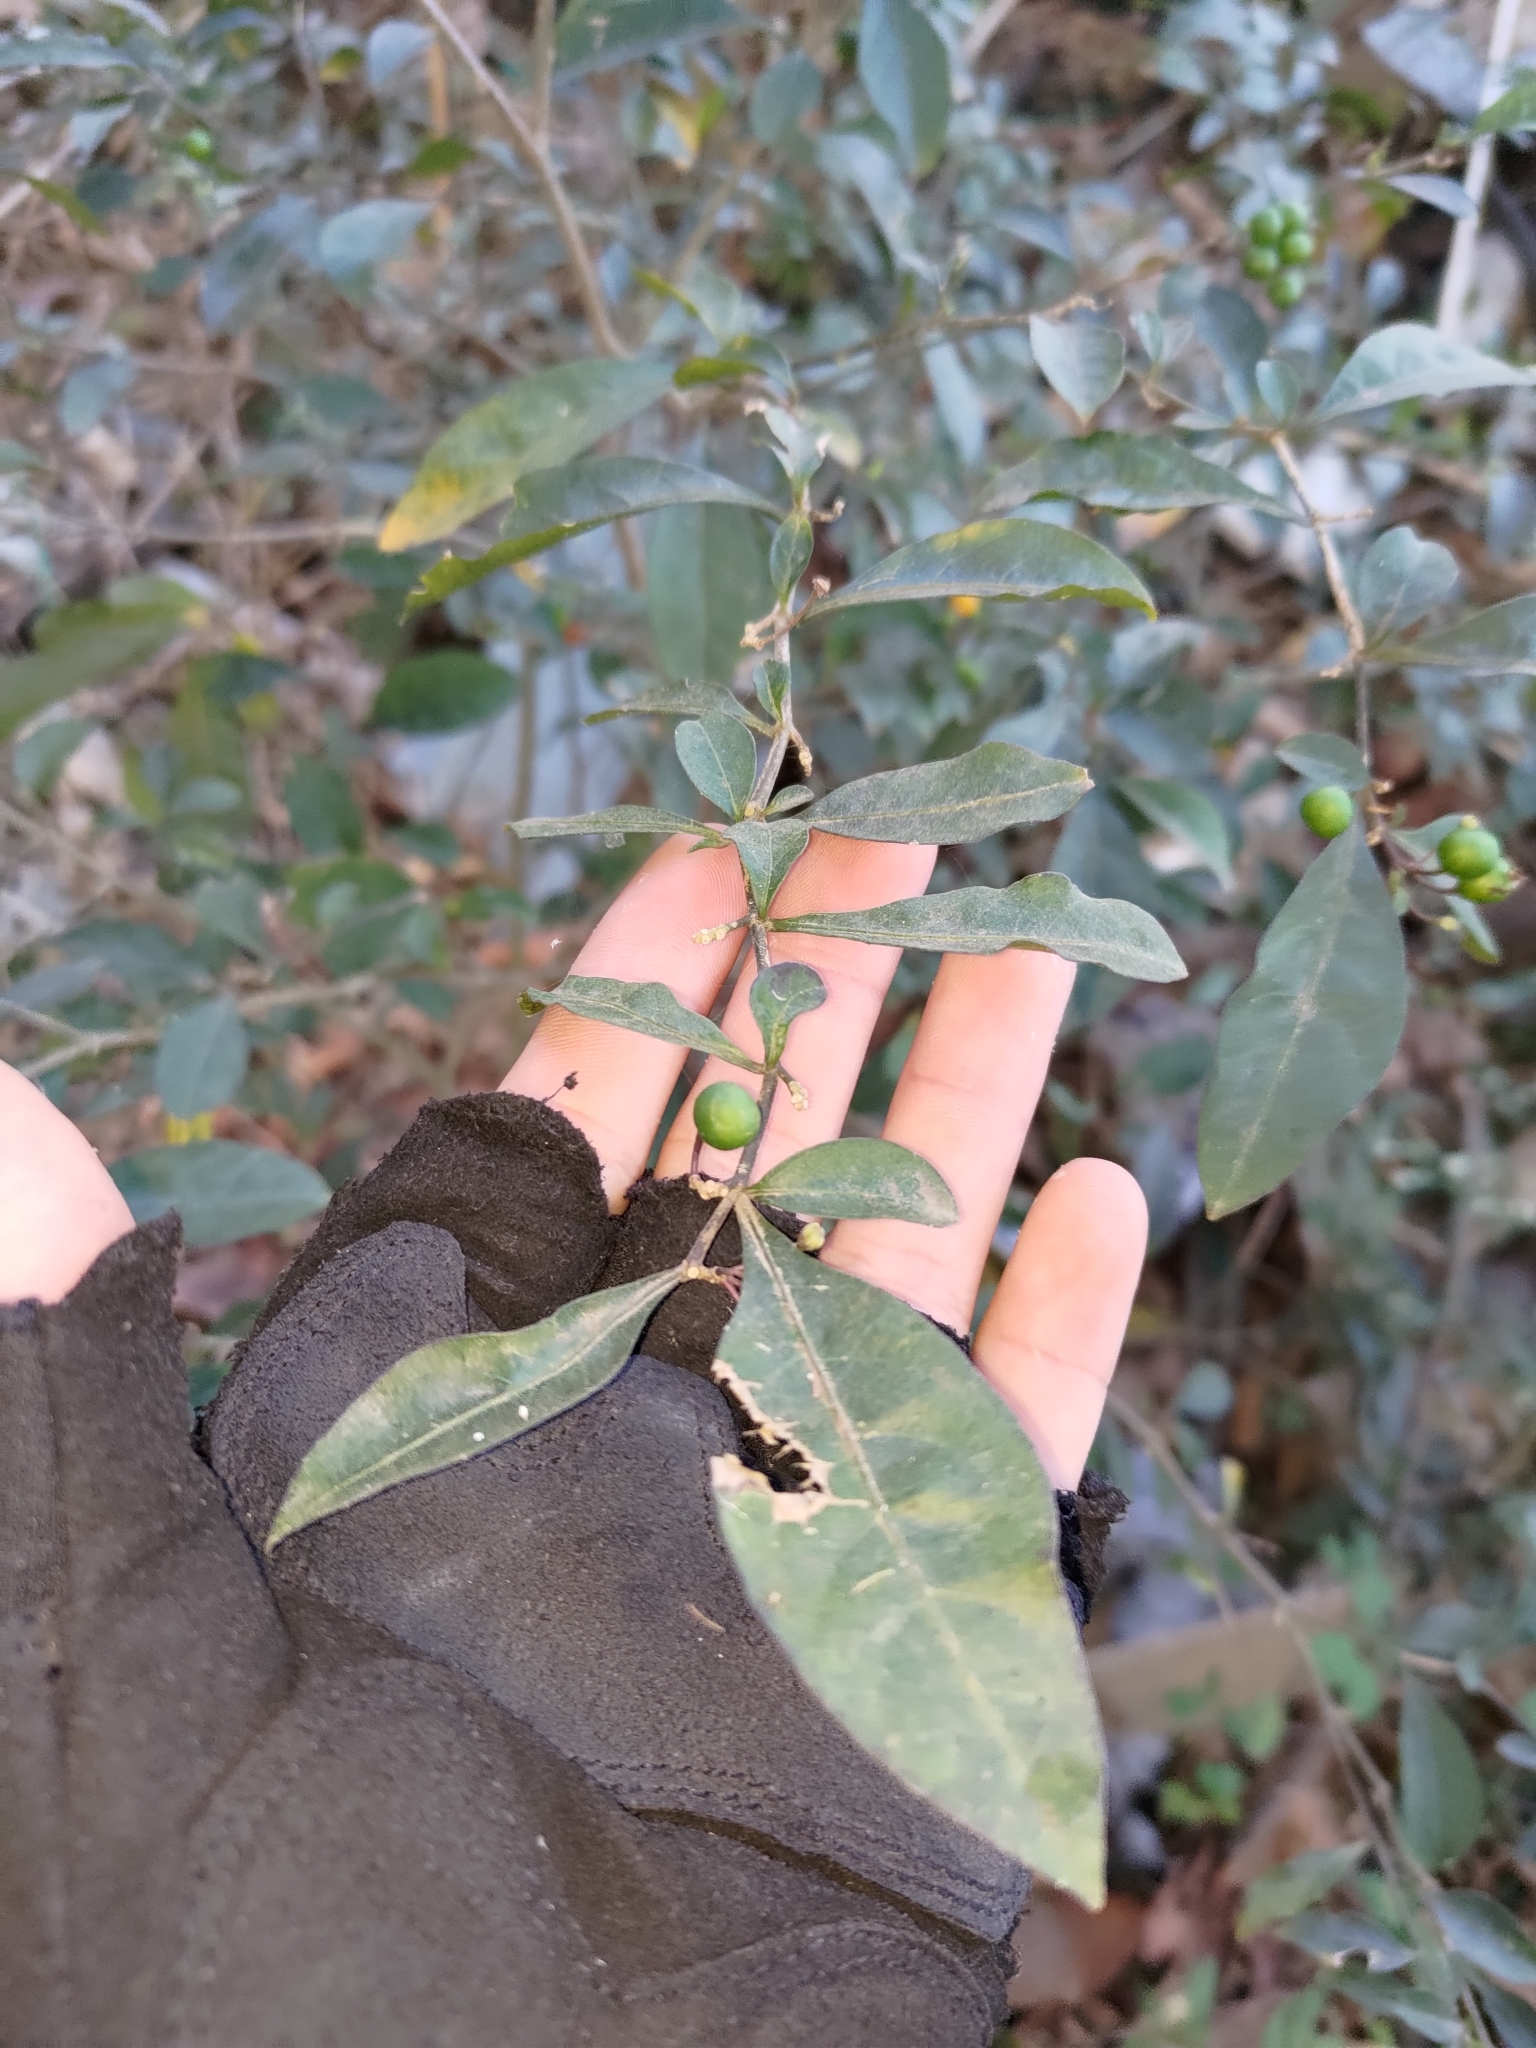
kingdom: Plantae
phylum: Tracheophyta
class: Magnoliopsida
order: Solanales
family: Solanaceae
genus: Solanum
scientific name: Solanum diphyllum
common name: Twoleaf nightshade
